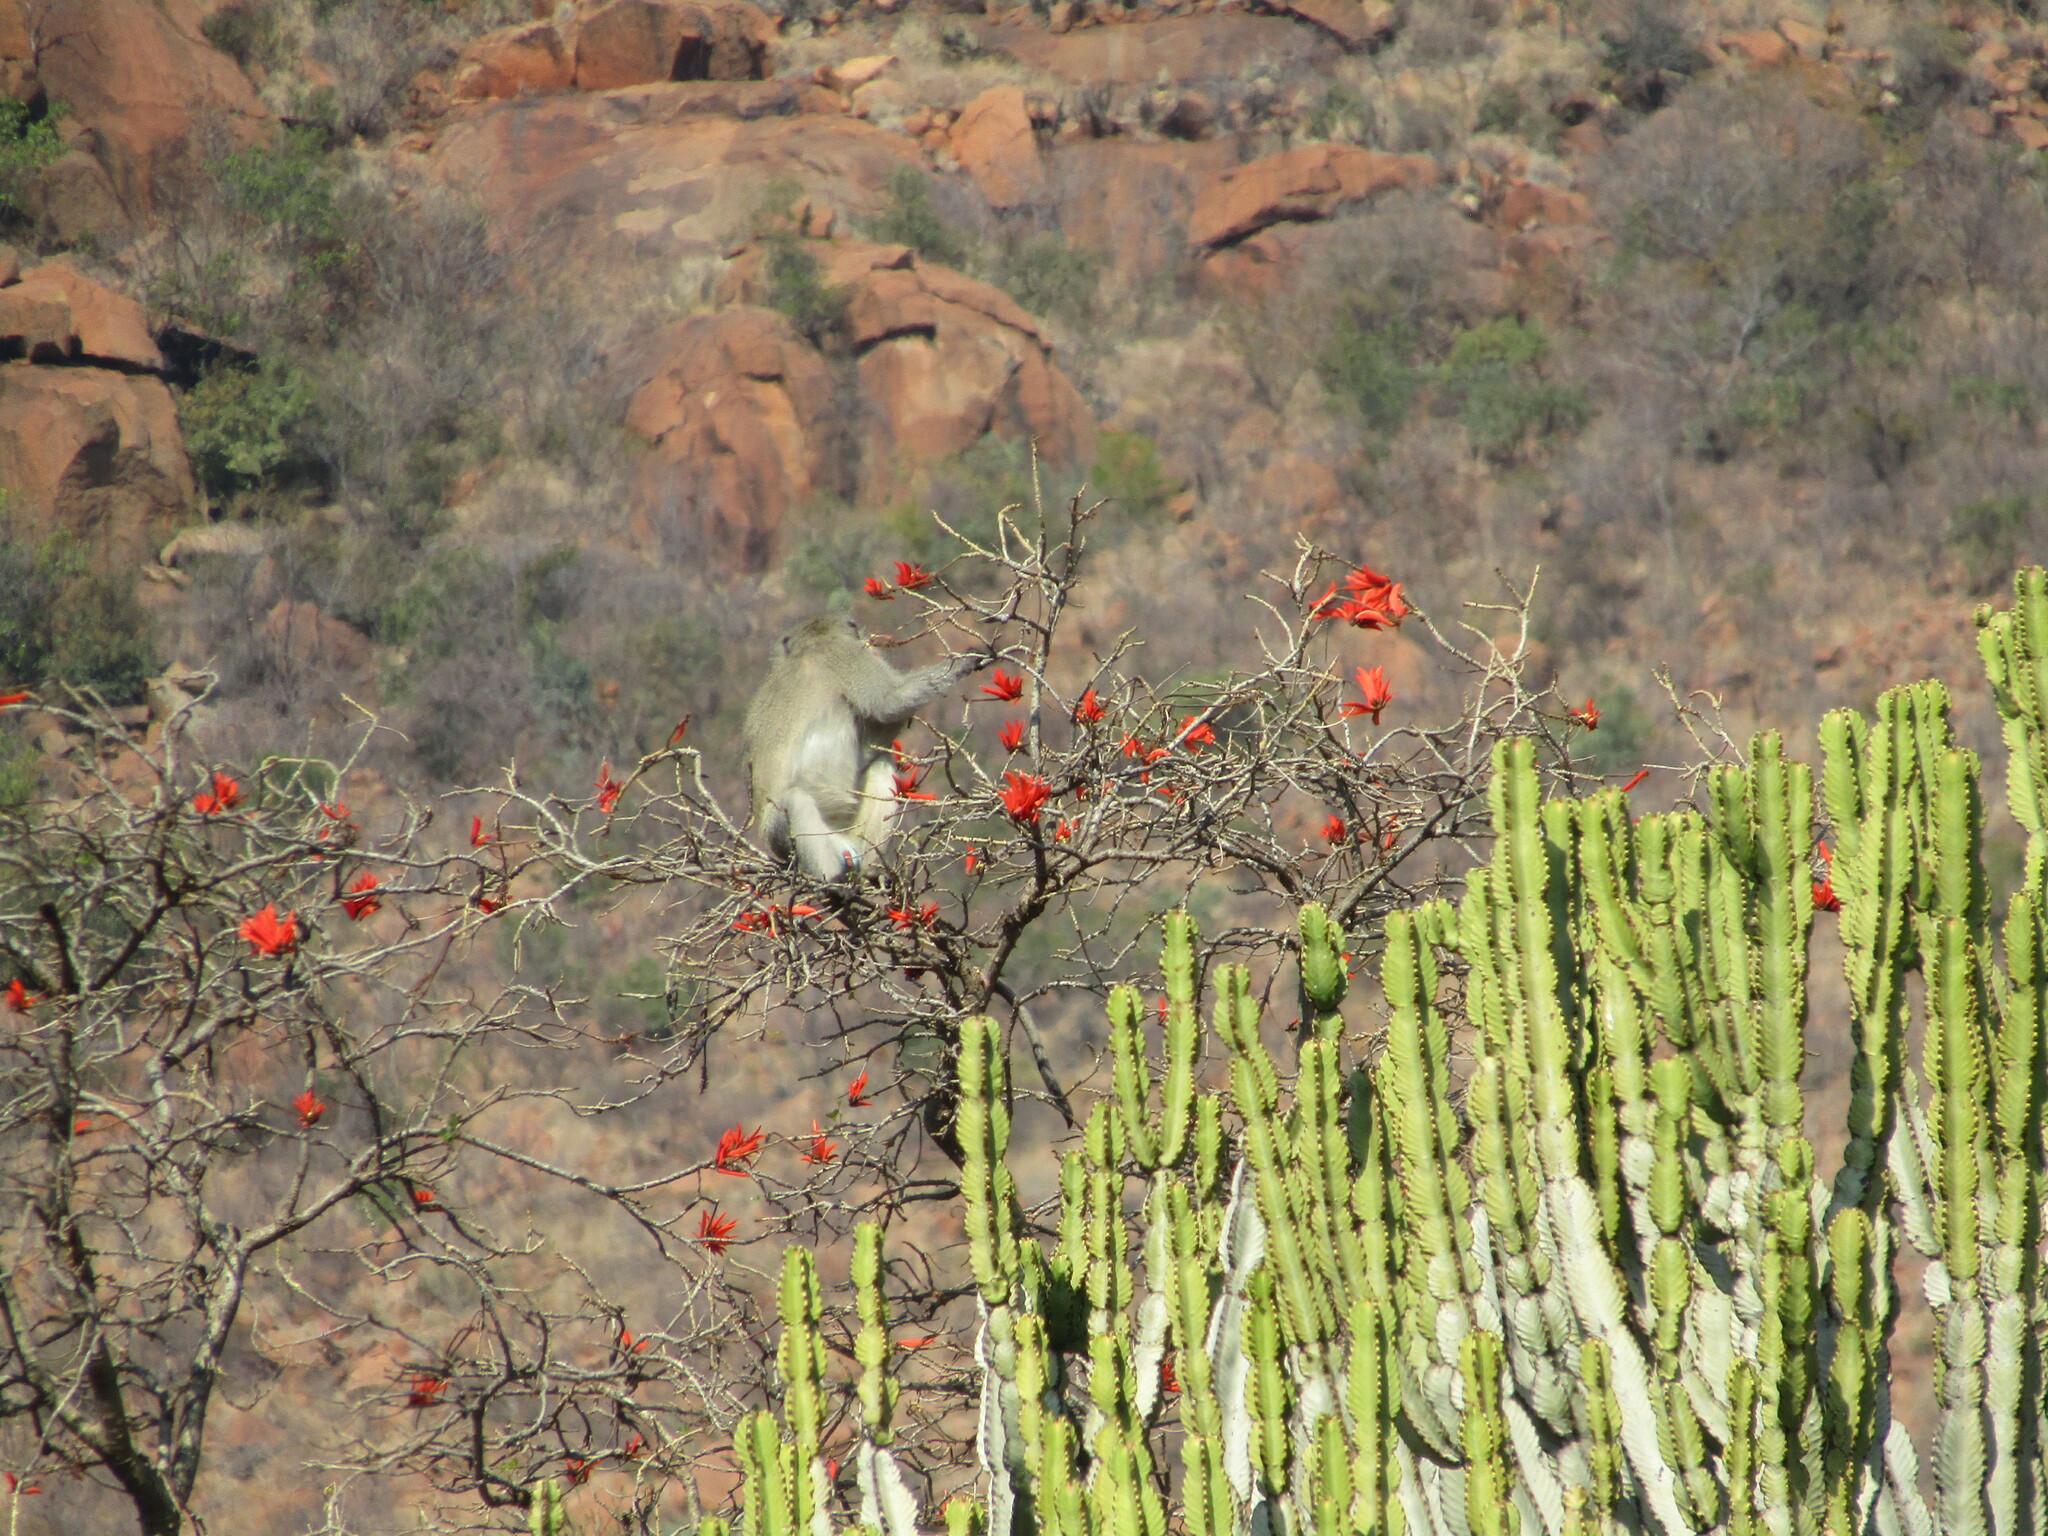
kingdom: Animalia
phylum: Chordata
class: Mammalia
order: Primates
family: Cercopithecidae
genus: Chlorocebus
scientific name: Chlorocebus pygerythrus
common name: Vervet monkey
